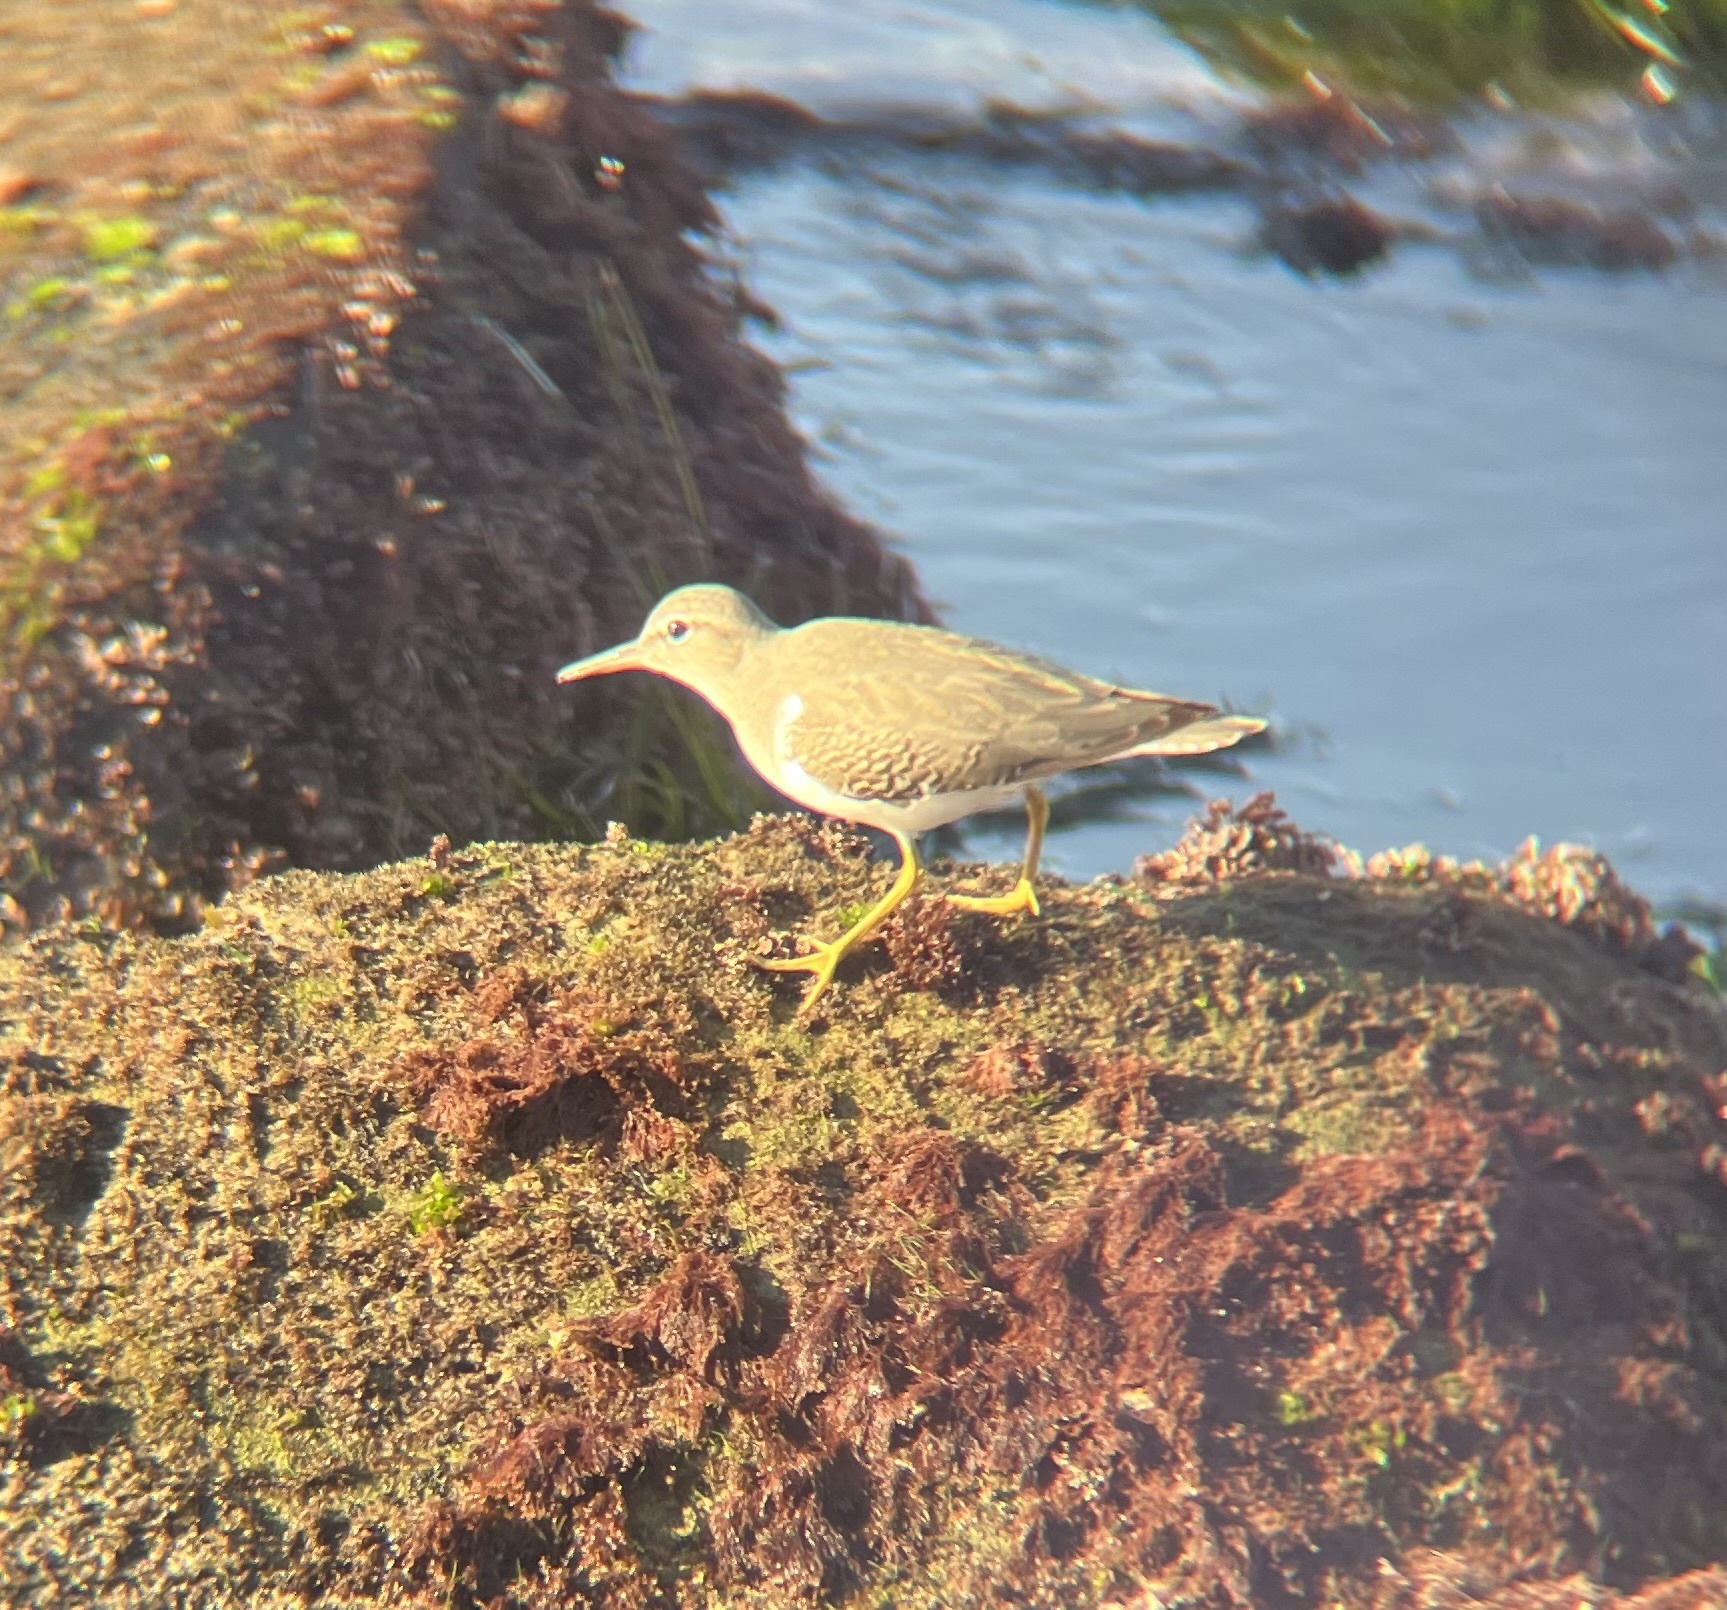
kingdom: Animalia
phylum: Chordata
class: Aves
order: Charadriiformes
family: Scolopacidae
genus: Actitis
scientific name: Actitis macularius
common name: Spotted sandpiper
